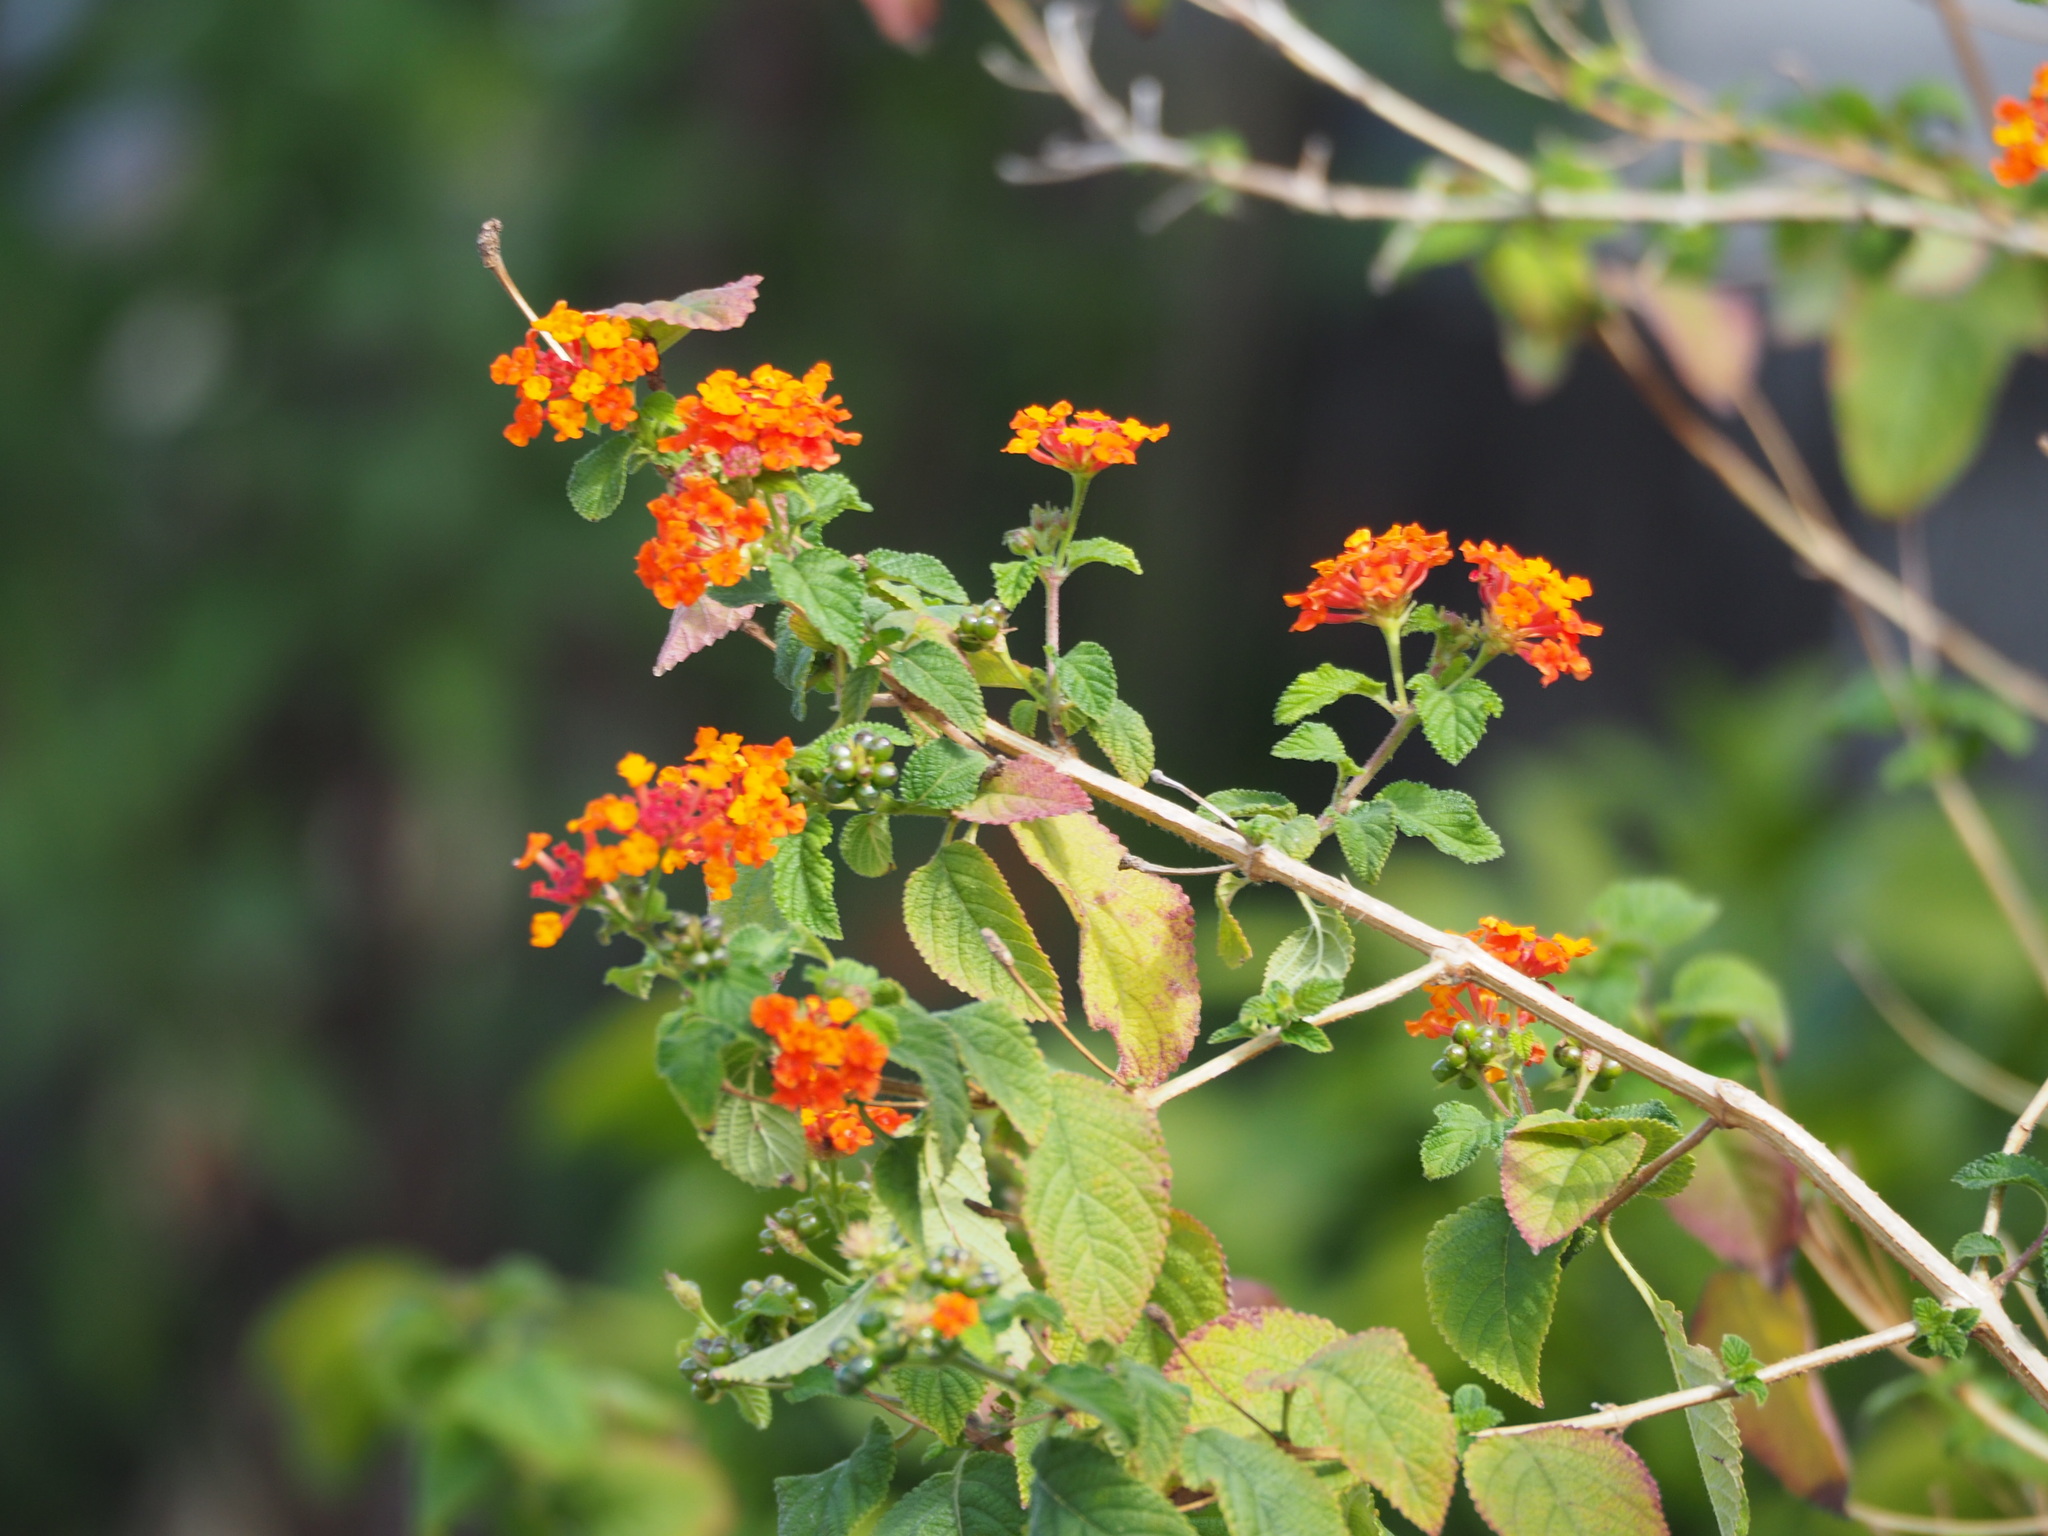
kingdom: Plantae
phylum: Tracheophyta
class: Magnoliopsida
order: Lamiales
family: Verbenaceae
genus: Lantana
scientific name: Lantana camara
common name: Lantana
